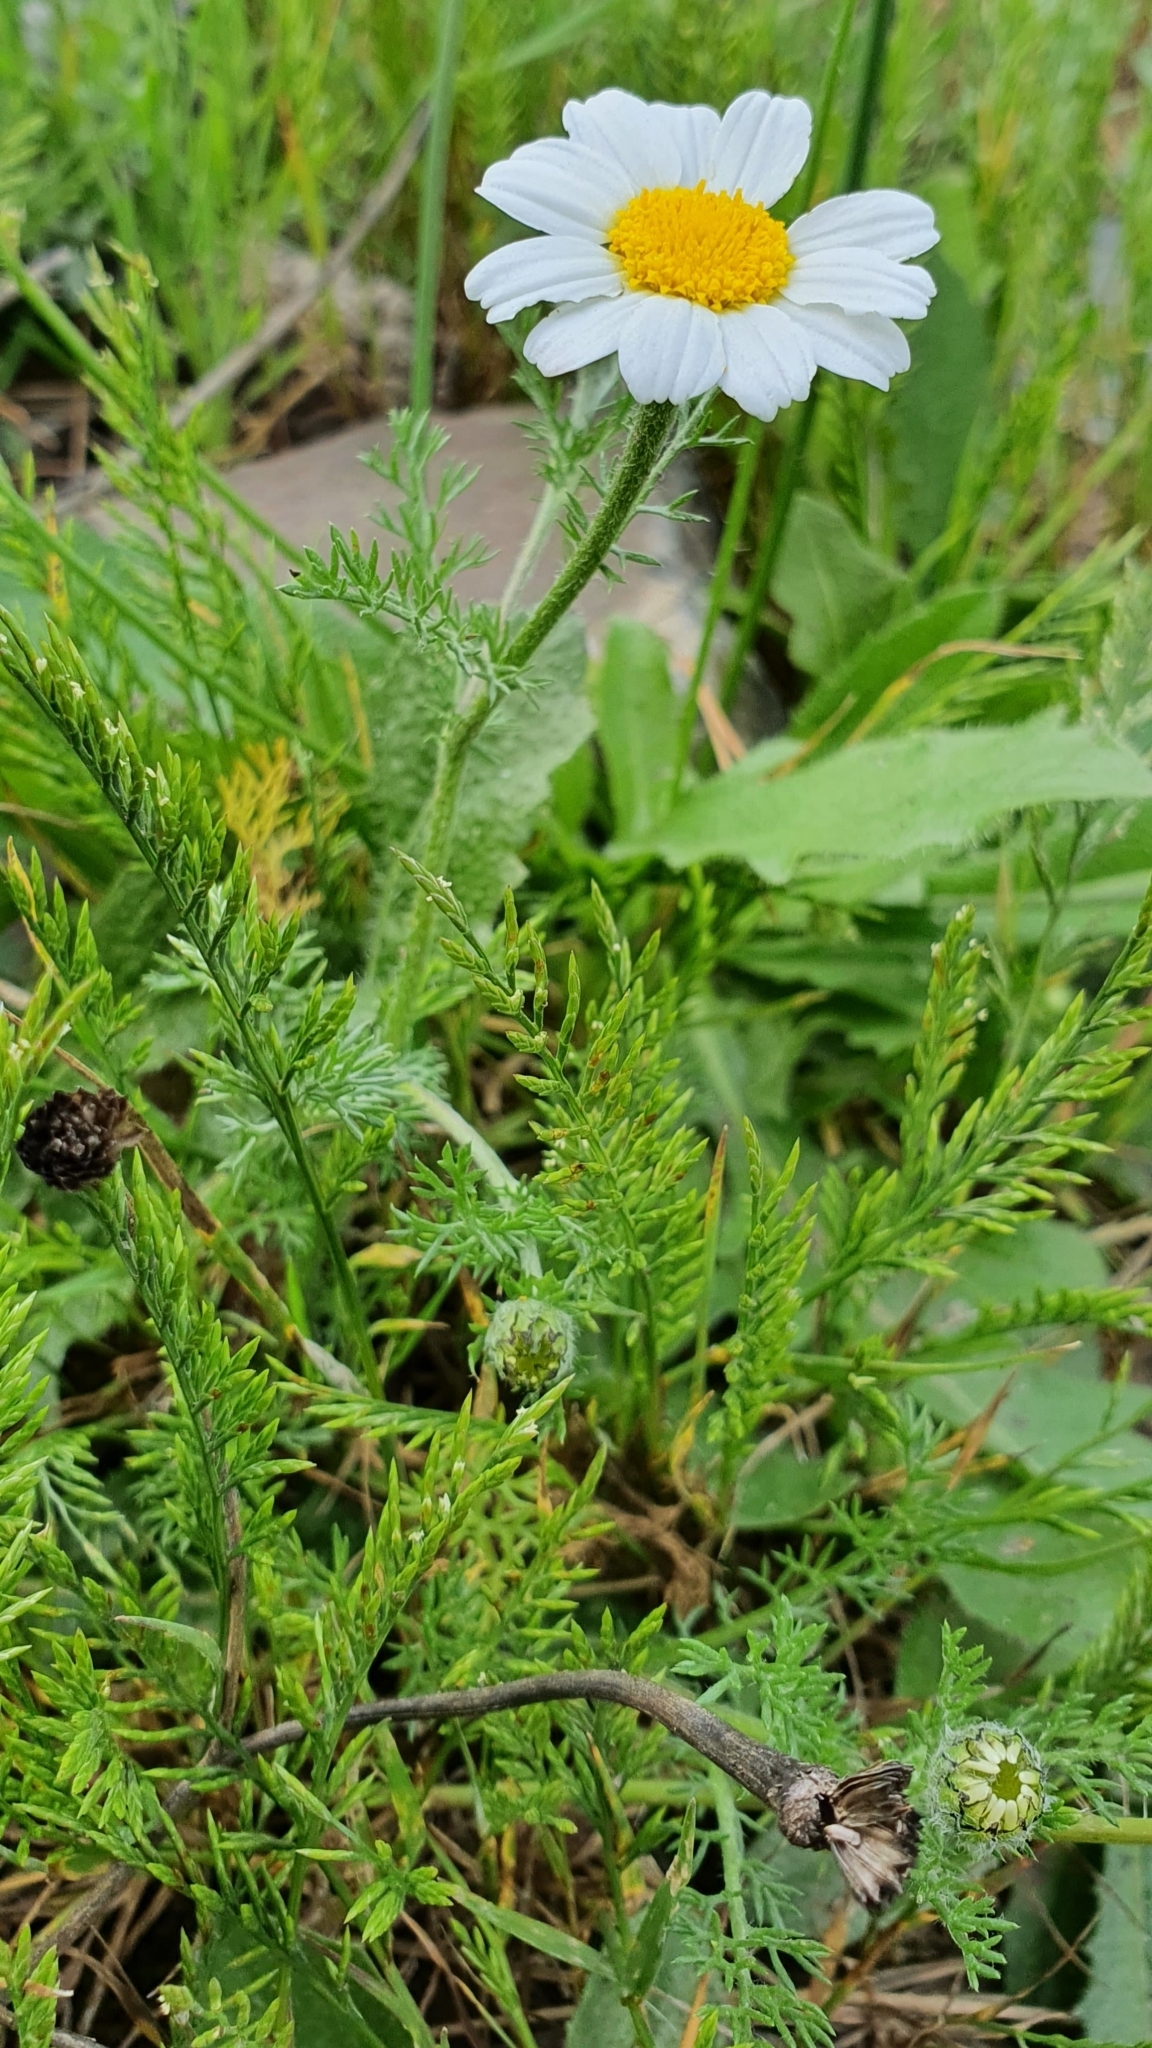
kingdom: Plantae
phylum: Tracheophyta
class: Magnoliopsida
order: Asterales
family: Asteraceae
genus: Anacyclus
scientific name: Anacyclus clavatus
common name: Whitebuttons
